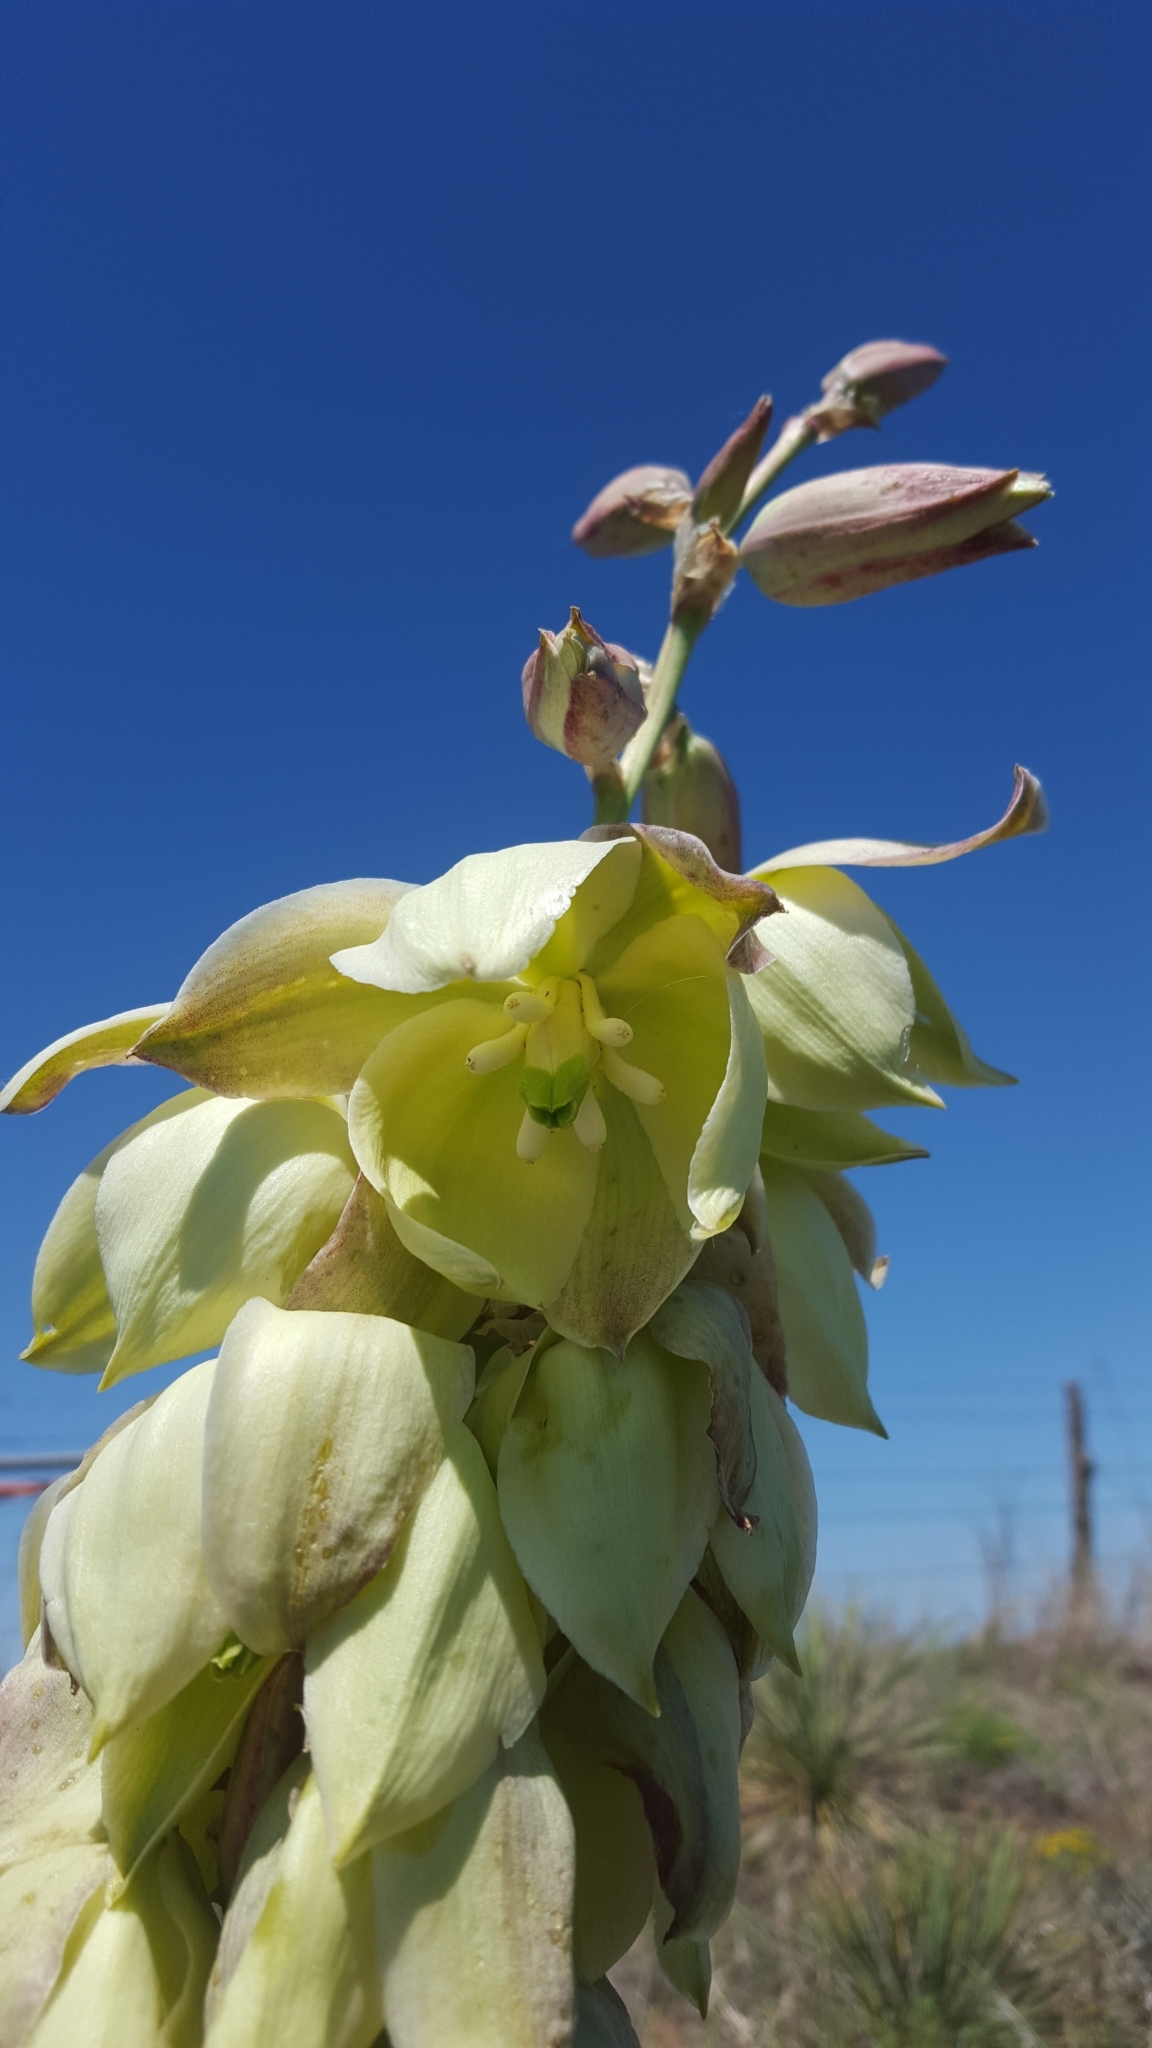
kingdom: Plantae
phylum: Tracheophyta
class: Liliopsida
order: Asparagales
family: Asparagaceae
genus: Yucca
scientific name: Yucca glauca
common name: Great plains yucca
